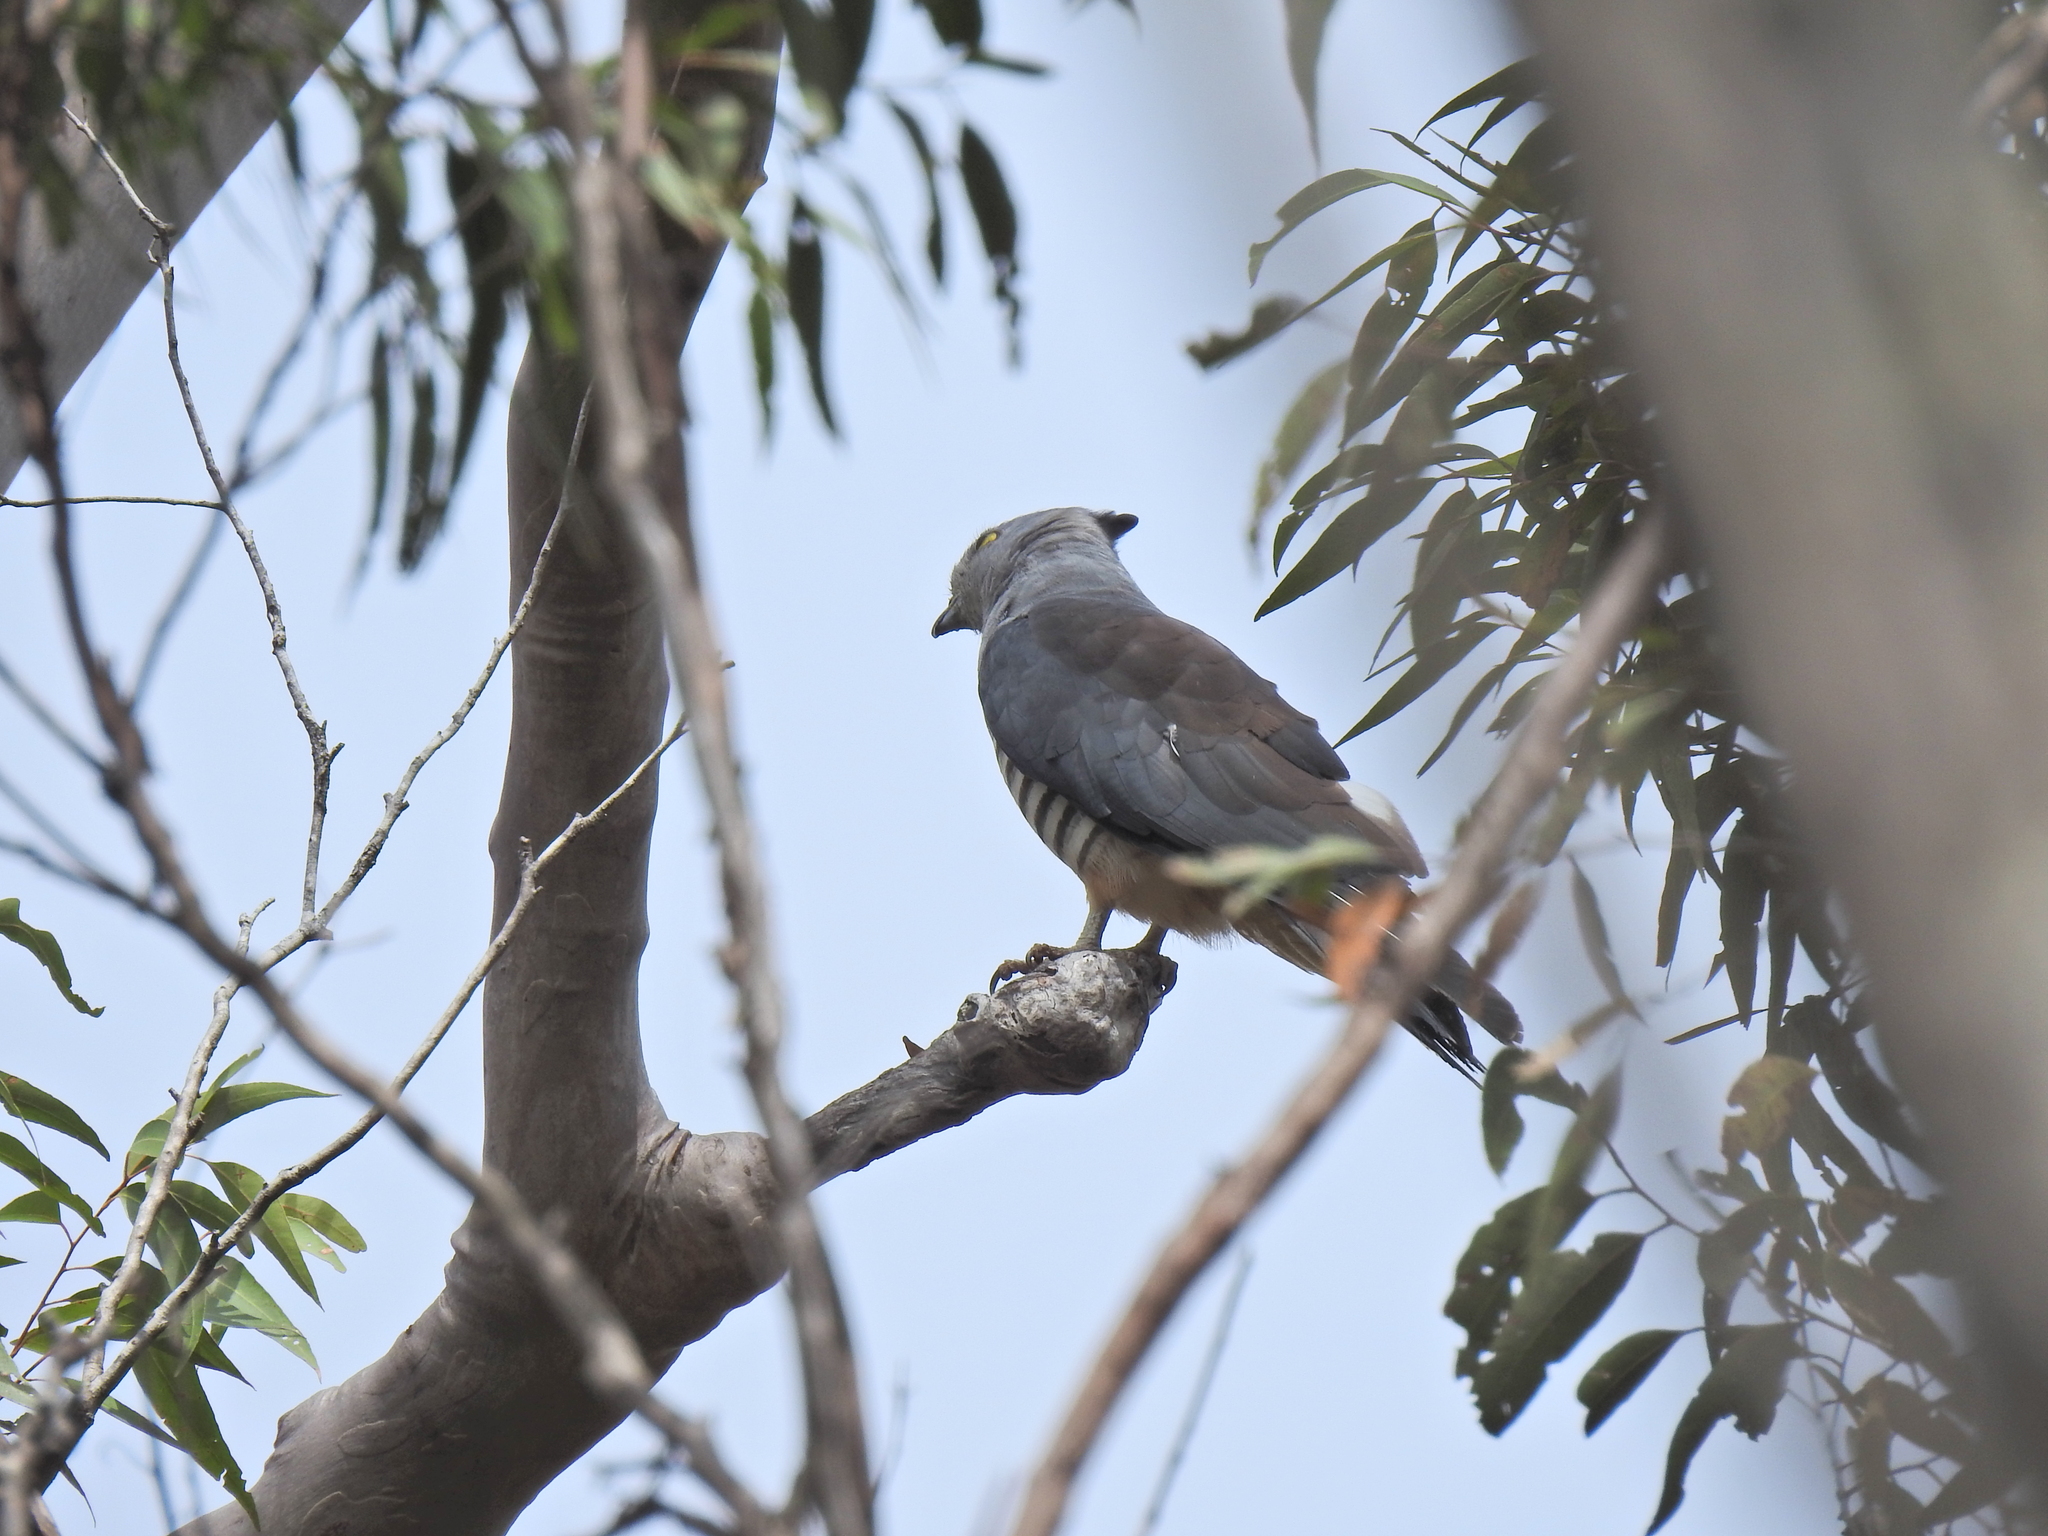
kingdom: Animalia
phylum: Chordata
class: Aves
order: Accipitriformes
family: Accipitridae
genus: Aviceda
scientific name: Aviceda subcristata
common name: Pacific baza
